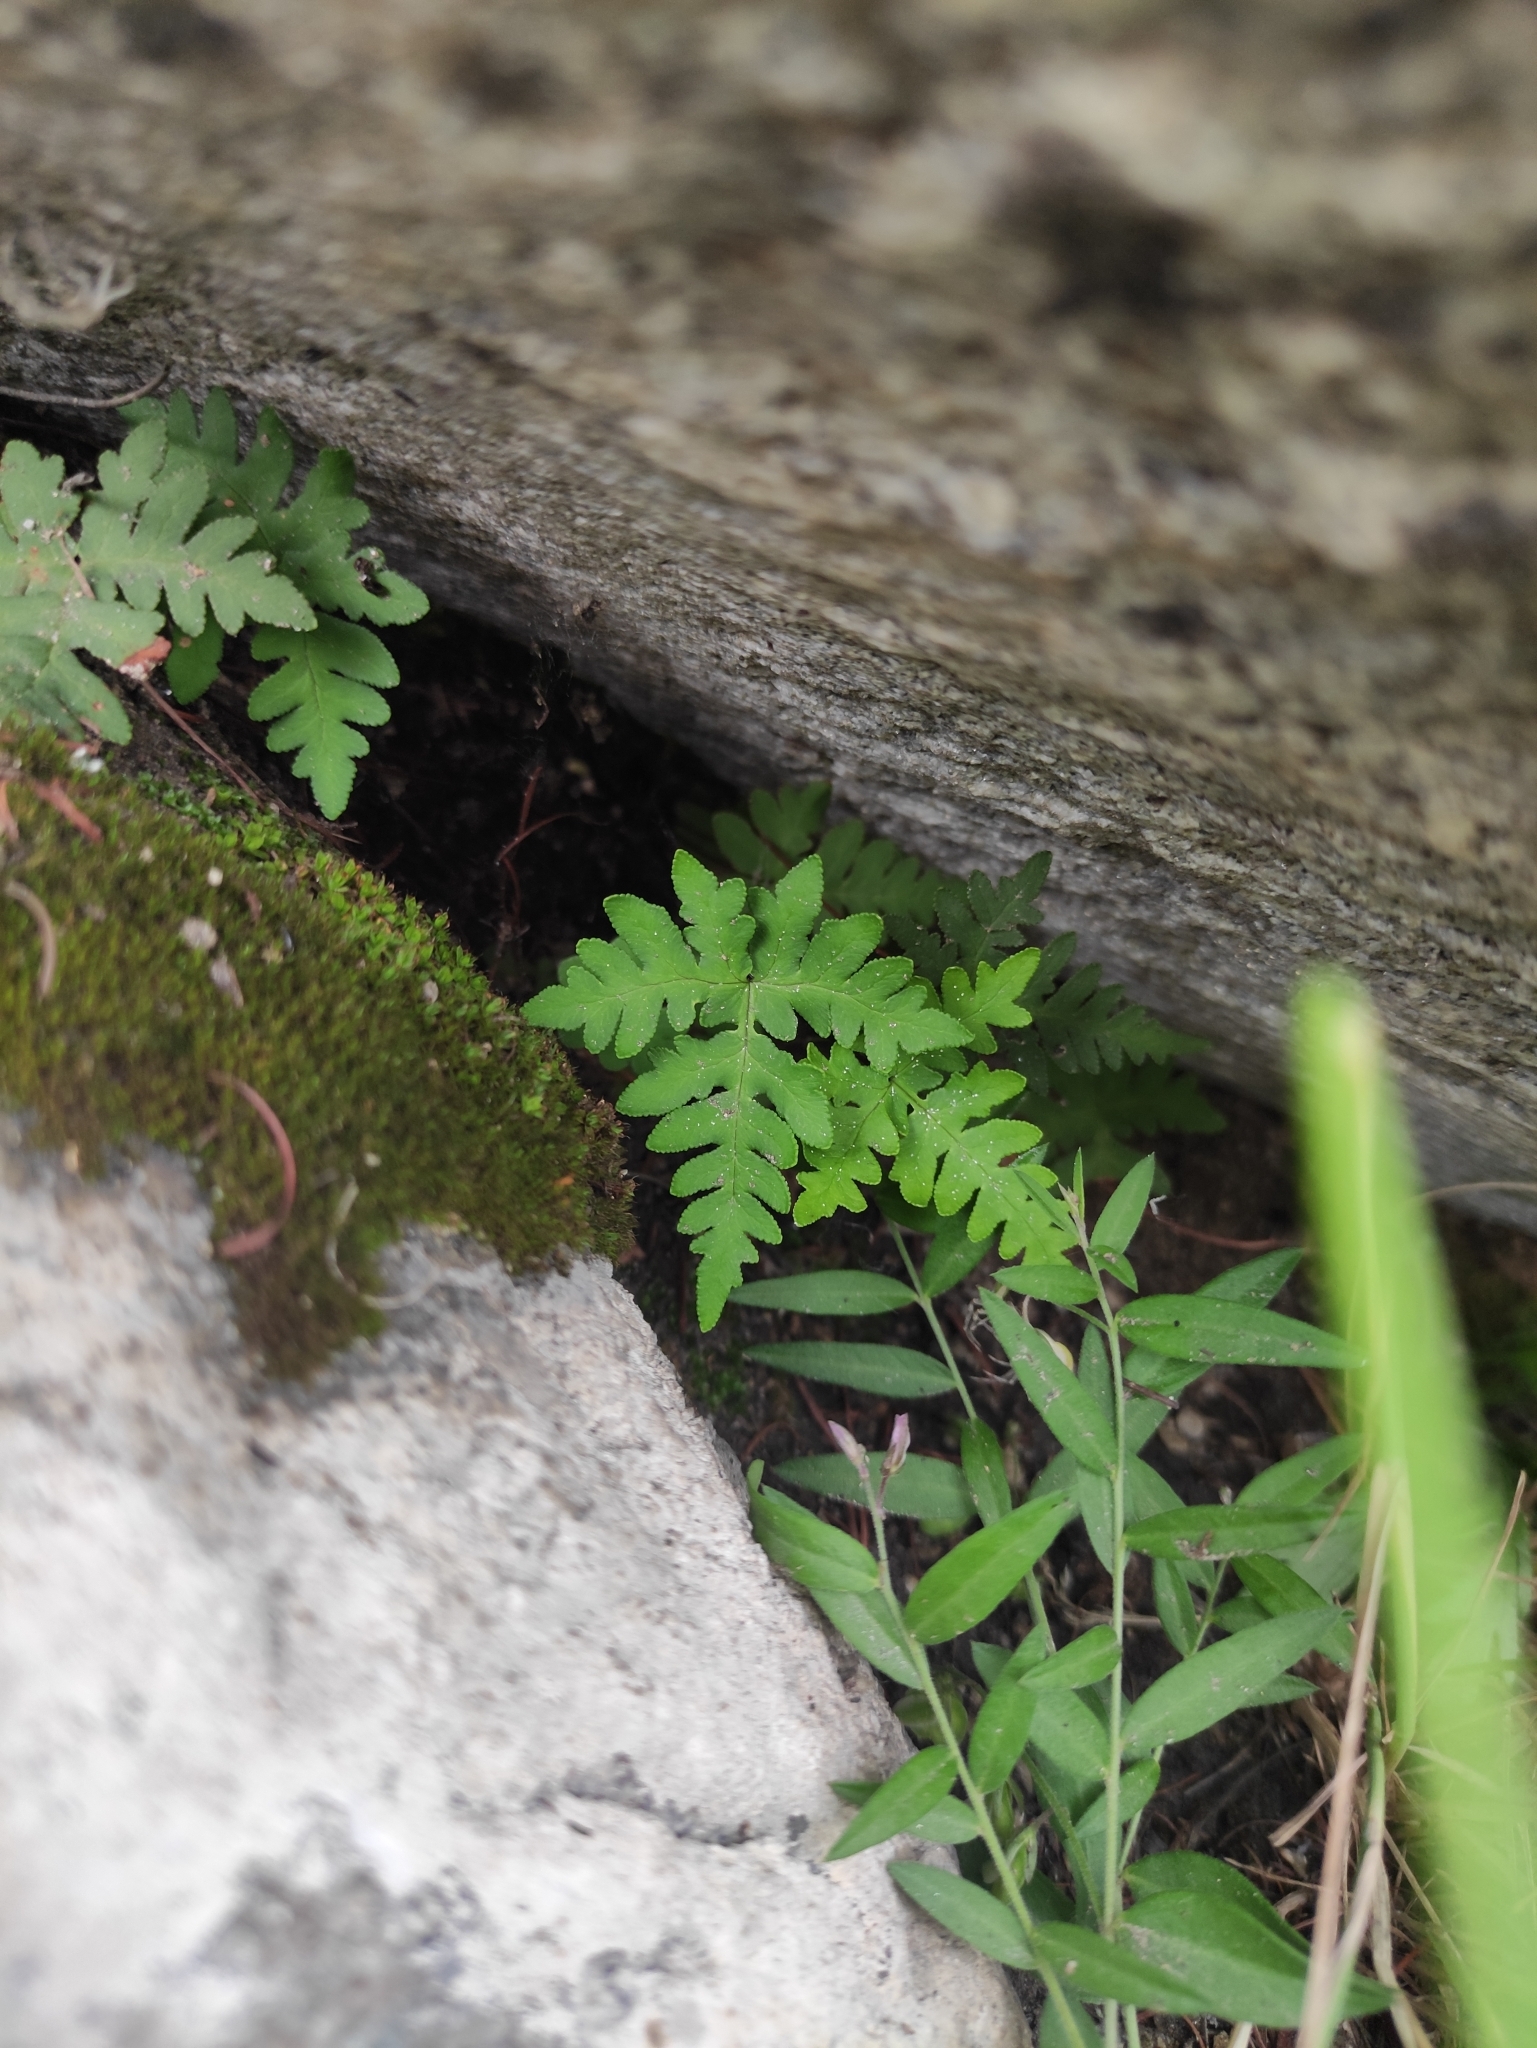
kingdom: Plantae
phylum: Tracheophyta
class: Polypodiopsida
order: Polypodiales
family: Pteridaceae
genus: Aleuritopteris
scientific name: Aleuritopteris argentea
